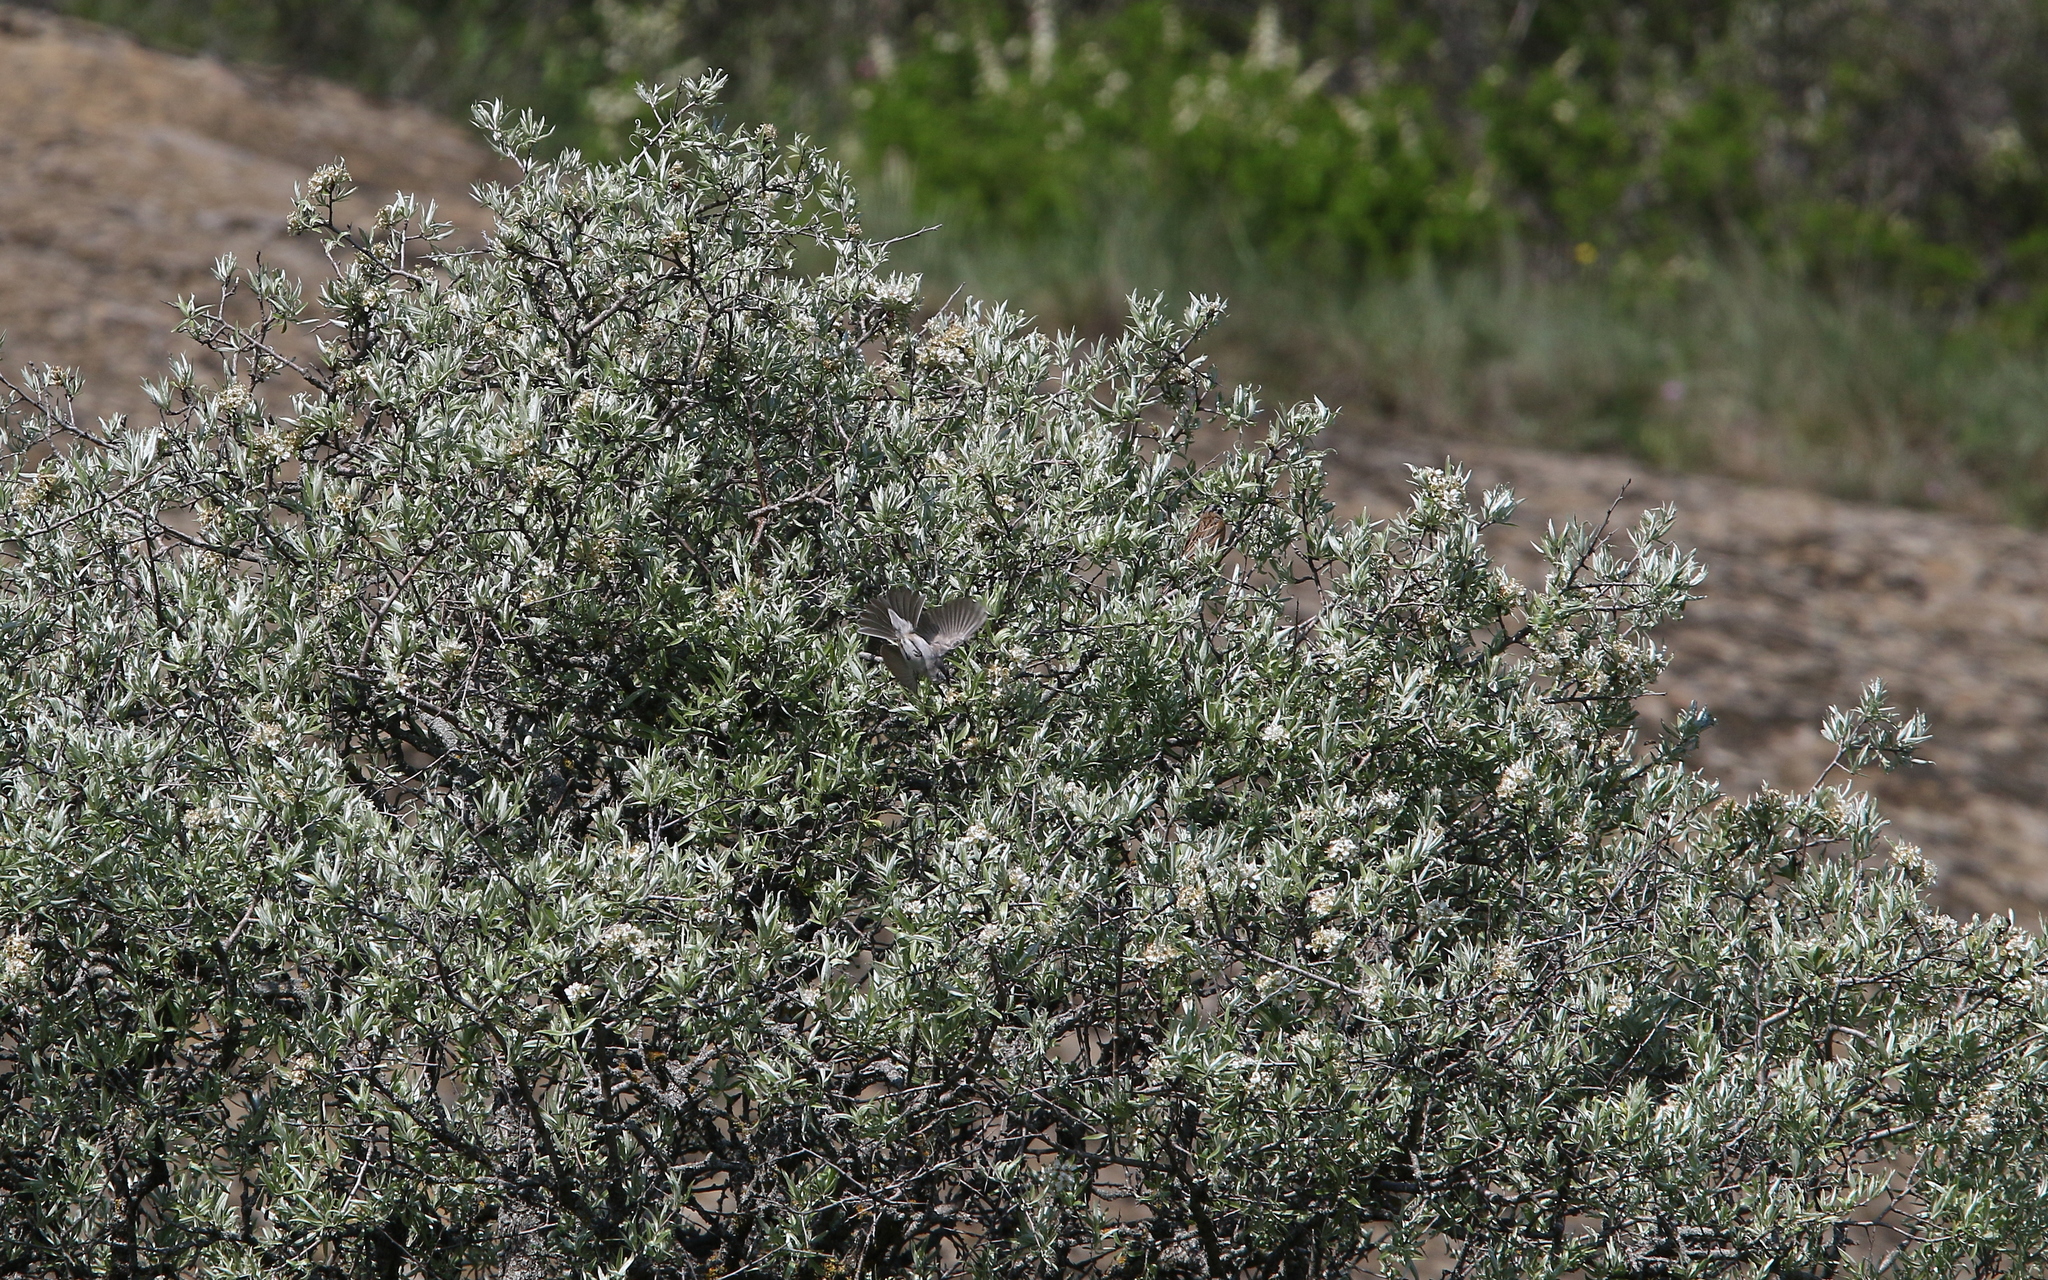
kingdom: Animalia
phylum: Chordata
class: Aves
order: Passeriformes
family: Sylviidae
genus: Sylvia
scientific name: Sylvia crassirostris
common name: Eastern orphean warbler
